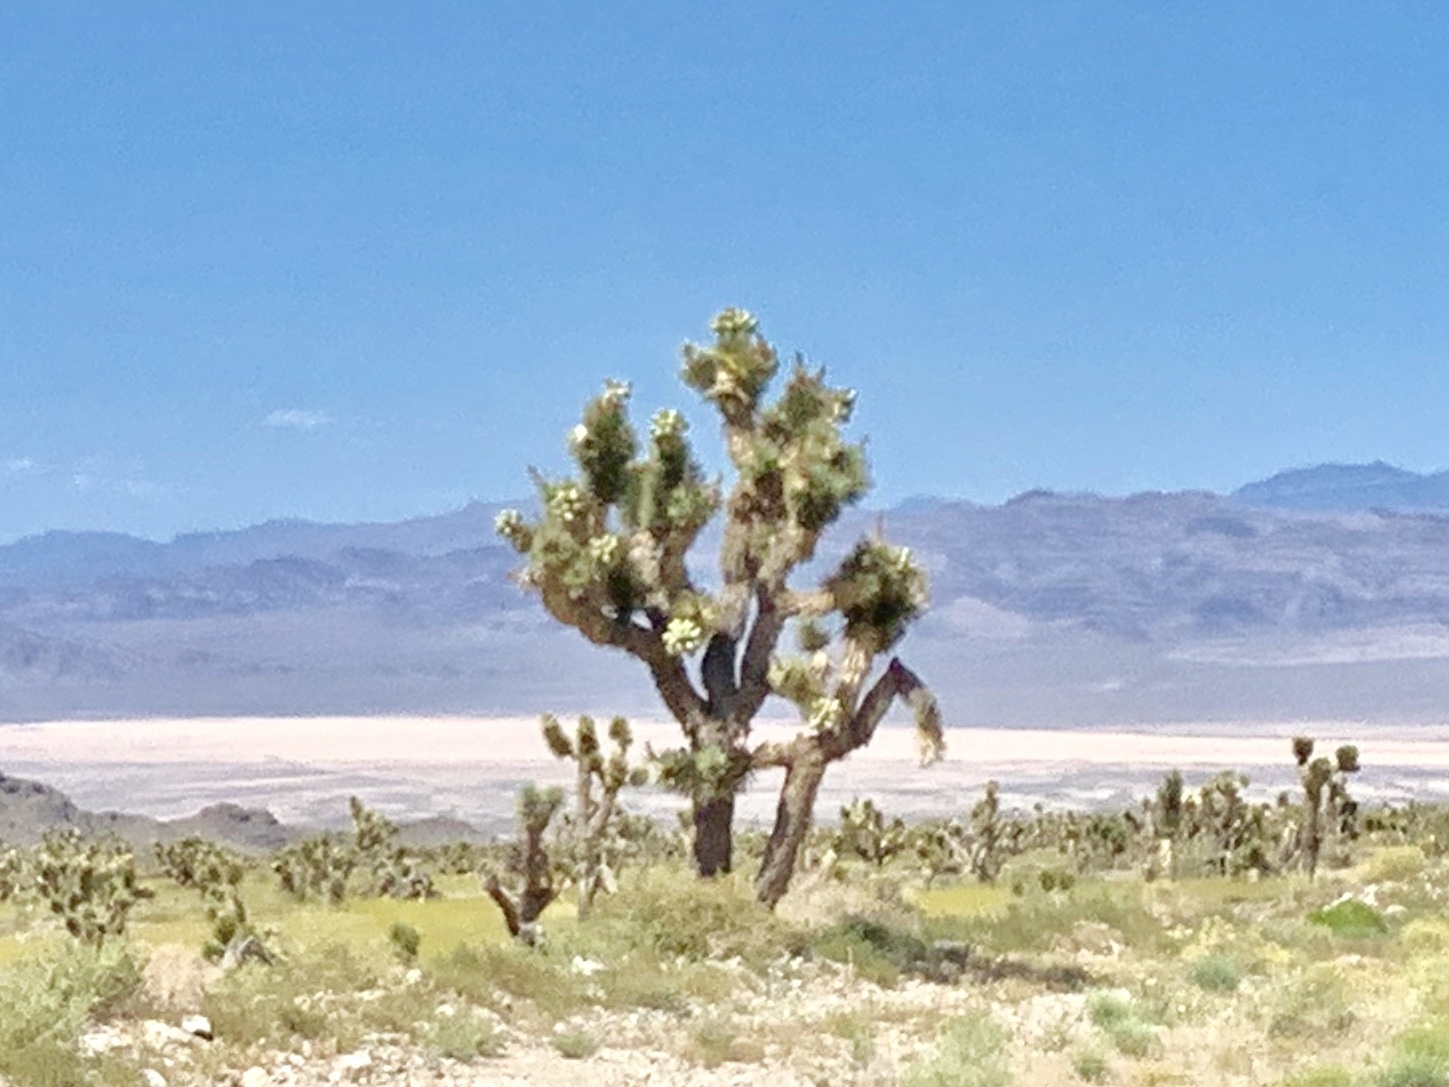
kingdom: Plantae
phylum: Tracheophyta
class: Liliopsida
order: Asparagales
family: Asparagaceae
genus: Yucca
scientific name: Yucca brevifolia
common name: Joshua tree
